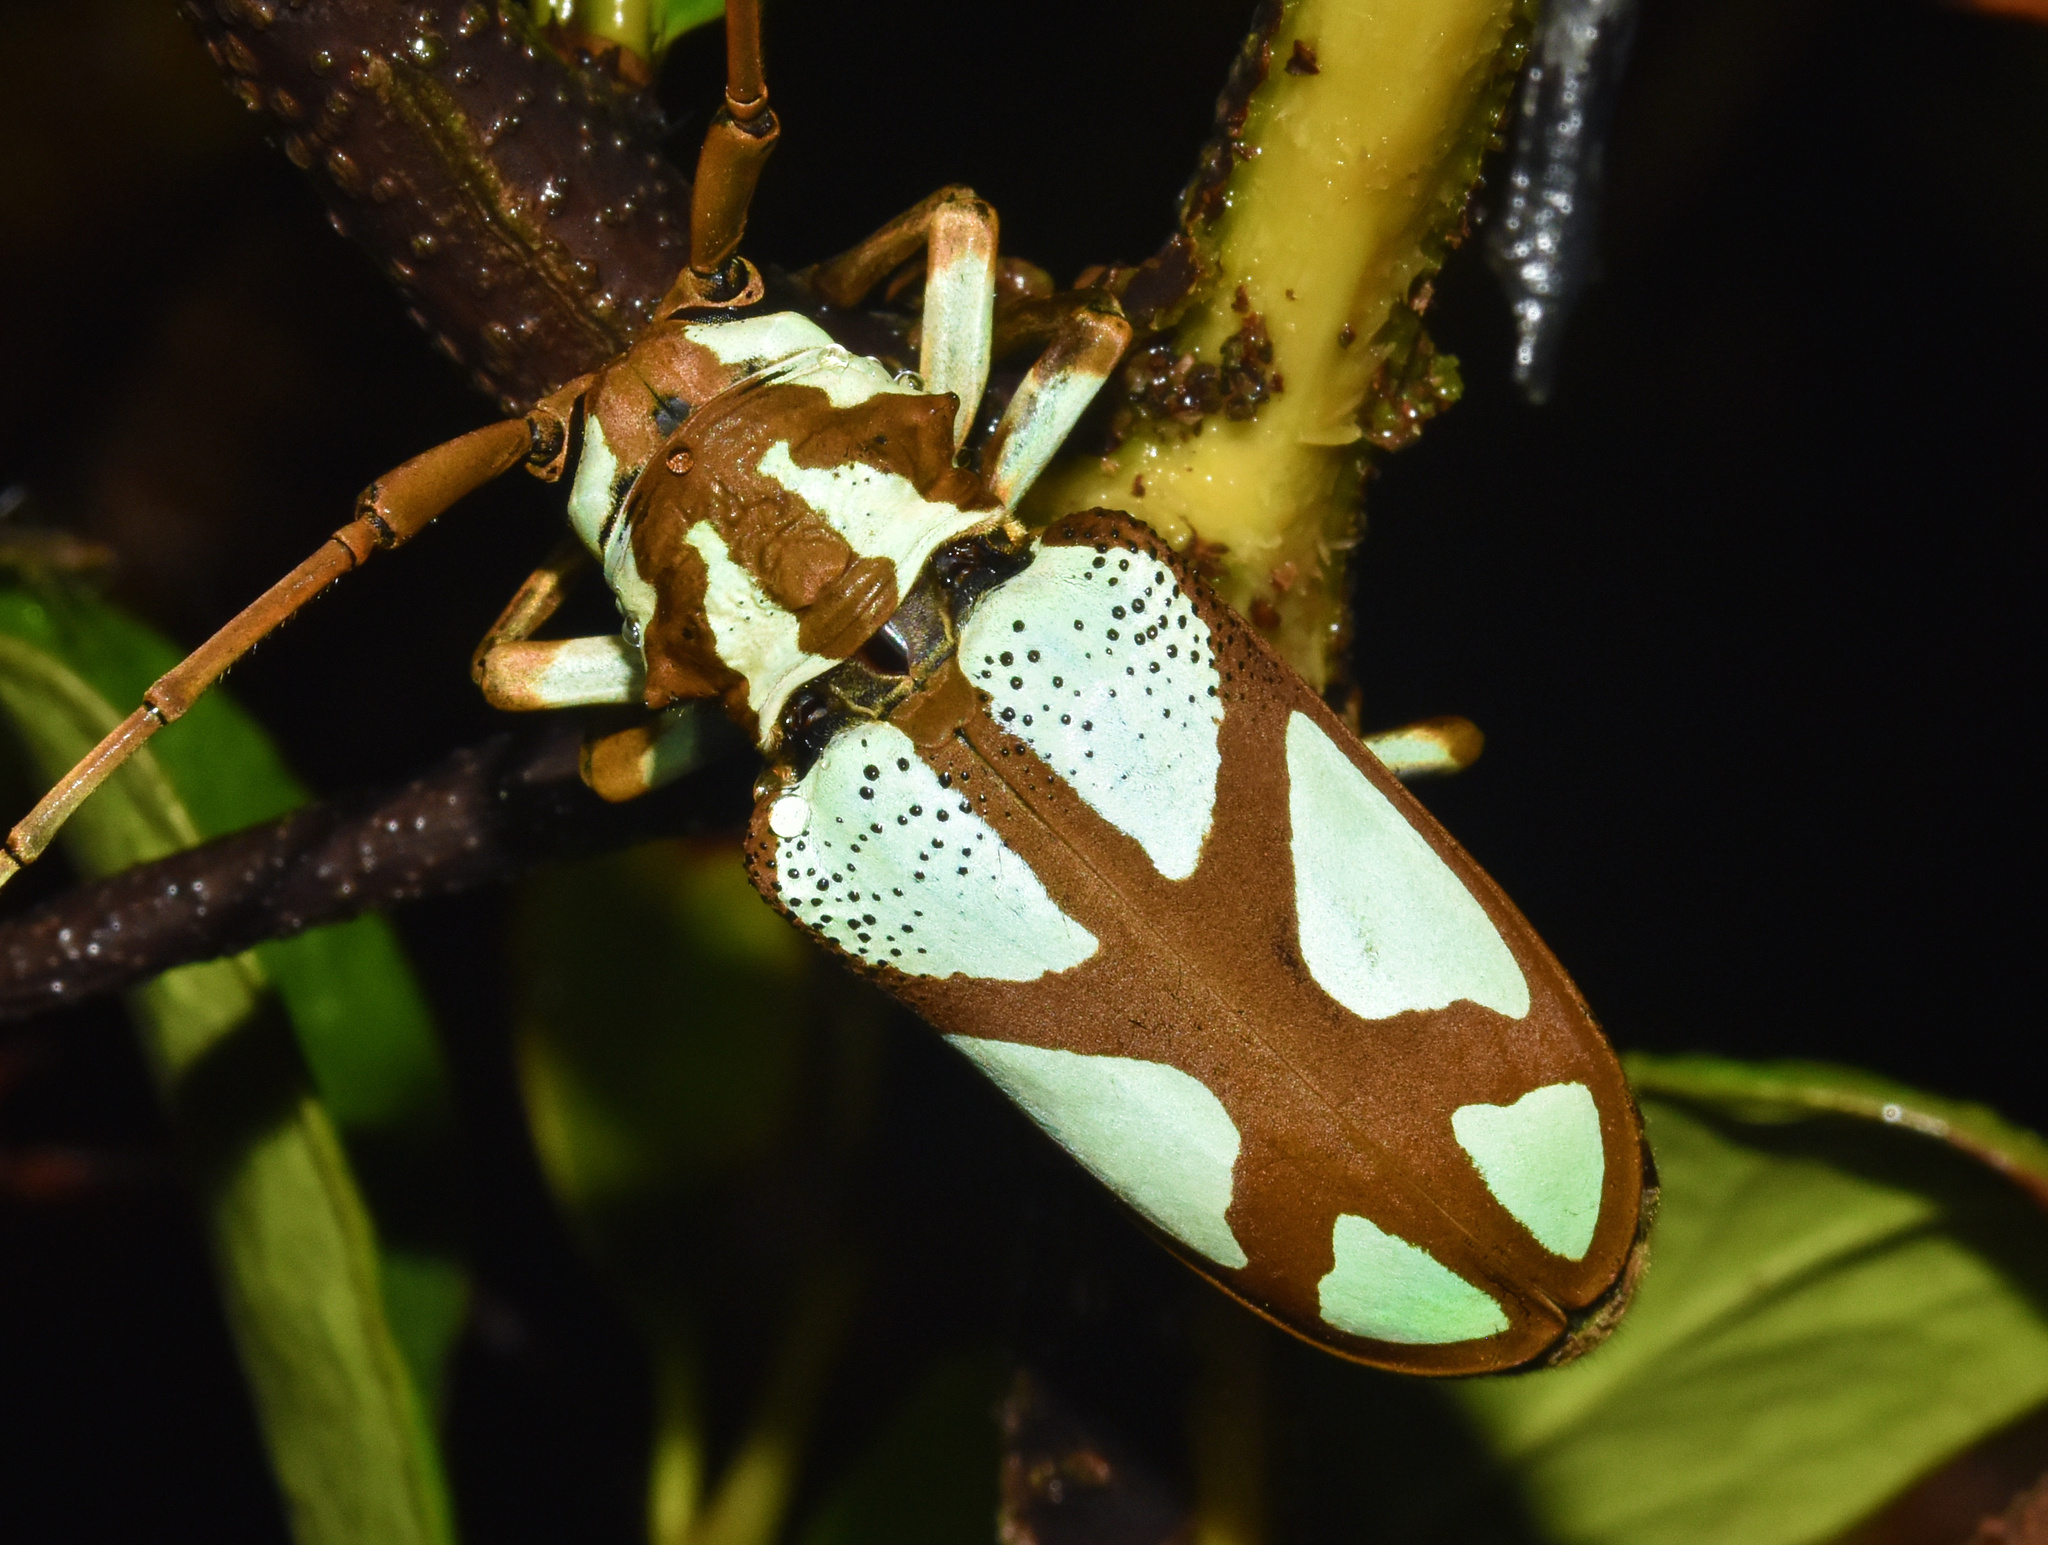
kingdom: Animalia
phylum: Arthropoda
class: Insecta
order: Coleoptera
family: Cerambycidae
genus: Prosopocera
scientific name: Prosopocera lactator
